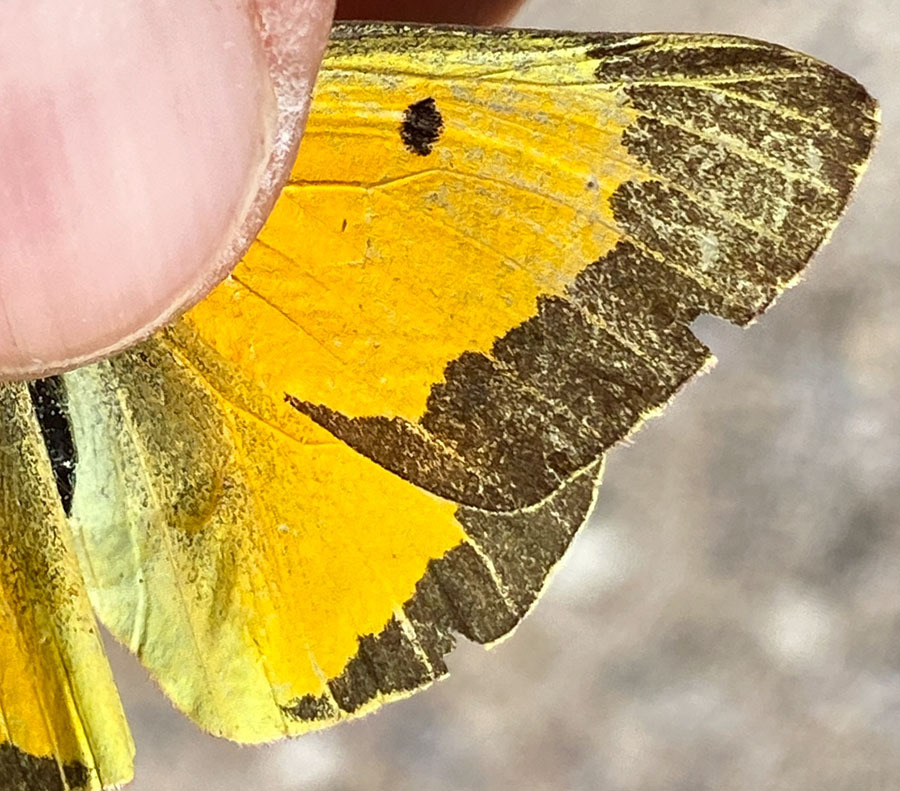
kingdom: Animalia
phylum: Arthropoda
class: Insecta
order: Lepidoptera
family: Pieridae
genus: Colias
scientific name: Colias eurytheme
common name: Alfalfa butterfly
